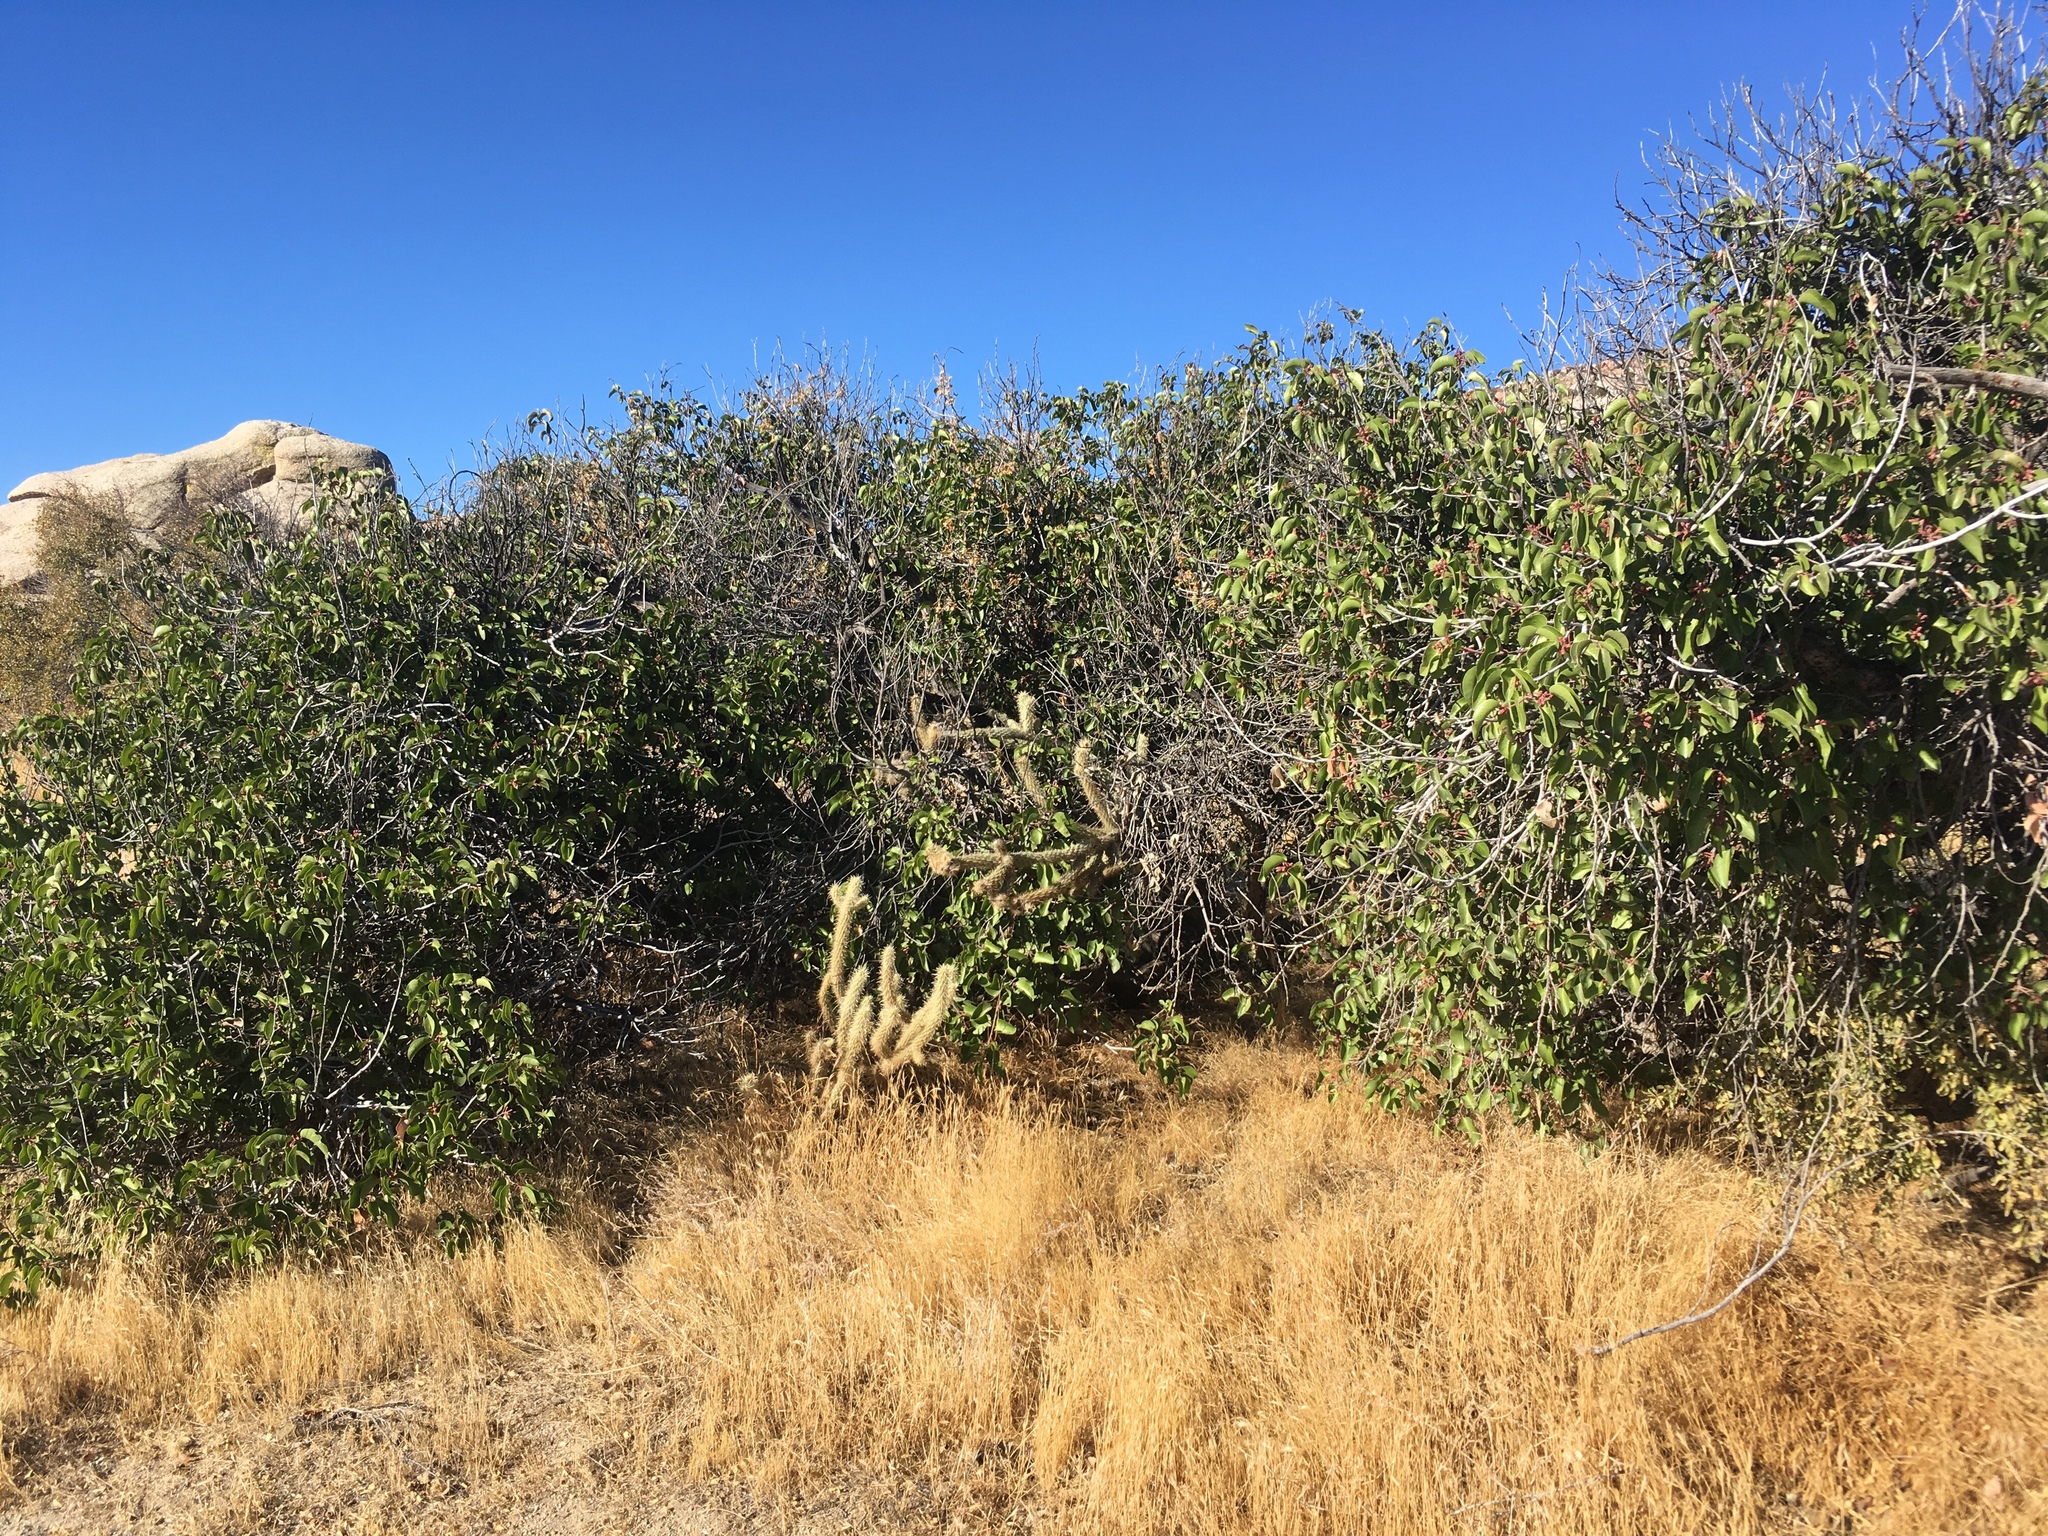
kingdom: Plantae
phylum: Tracheophyta
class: Magnoliopsida
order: Sapindales
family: Anacardiaceae
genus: Rhus
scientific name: Rhus ovata
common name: Sugar sumac
